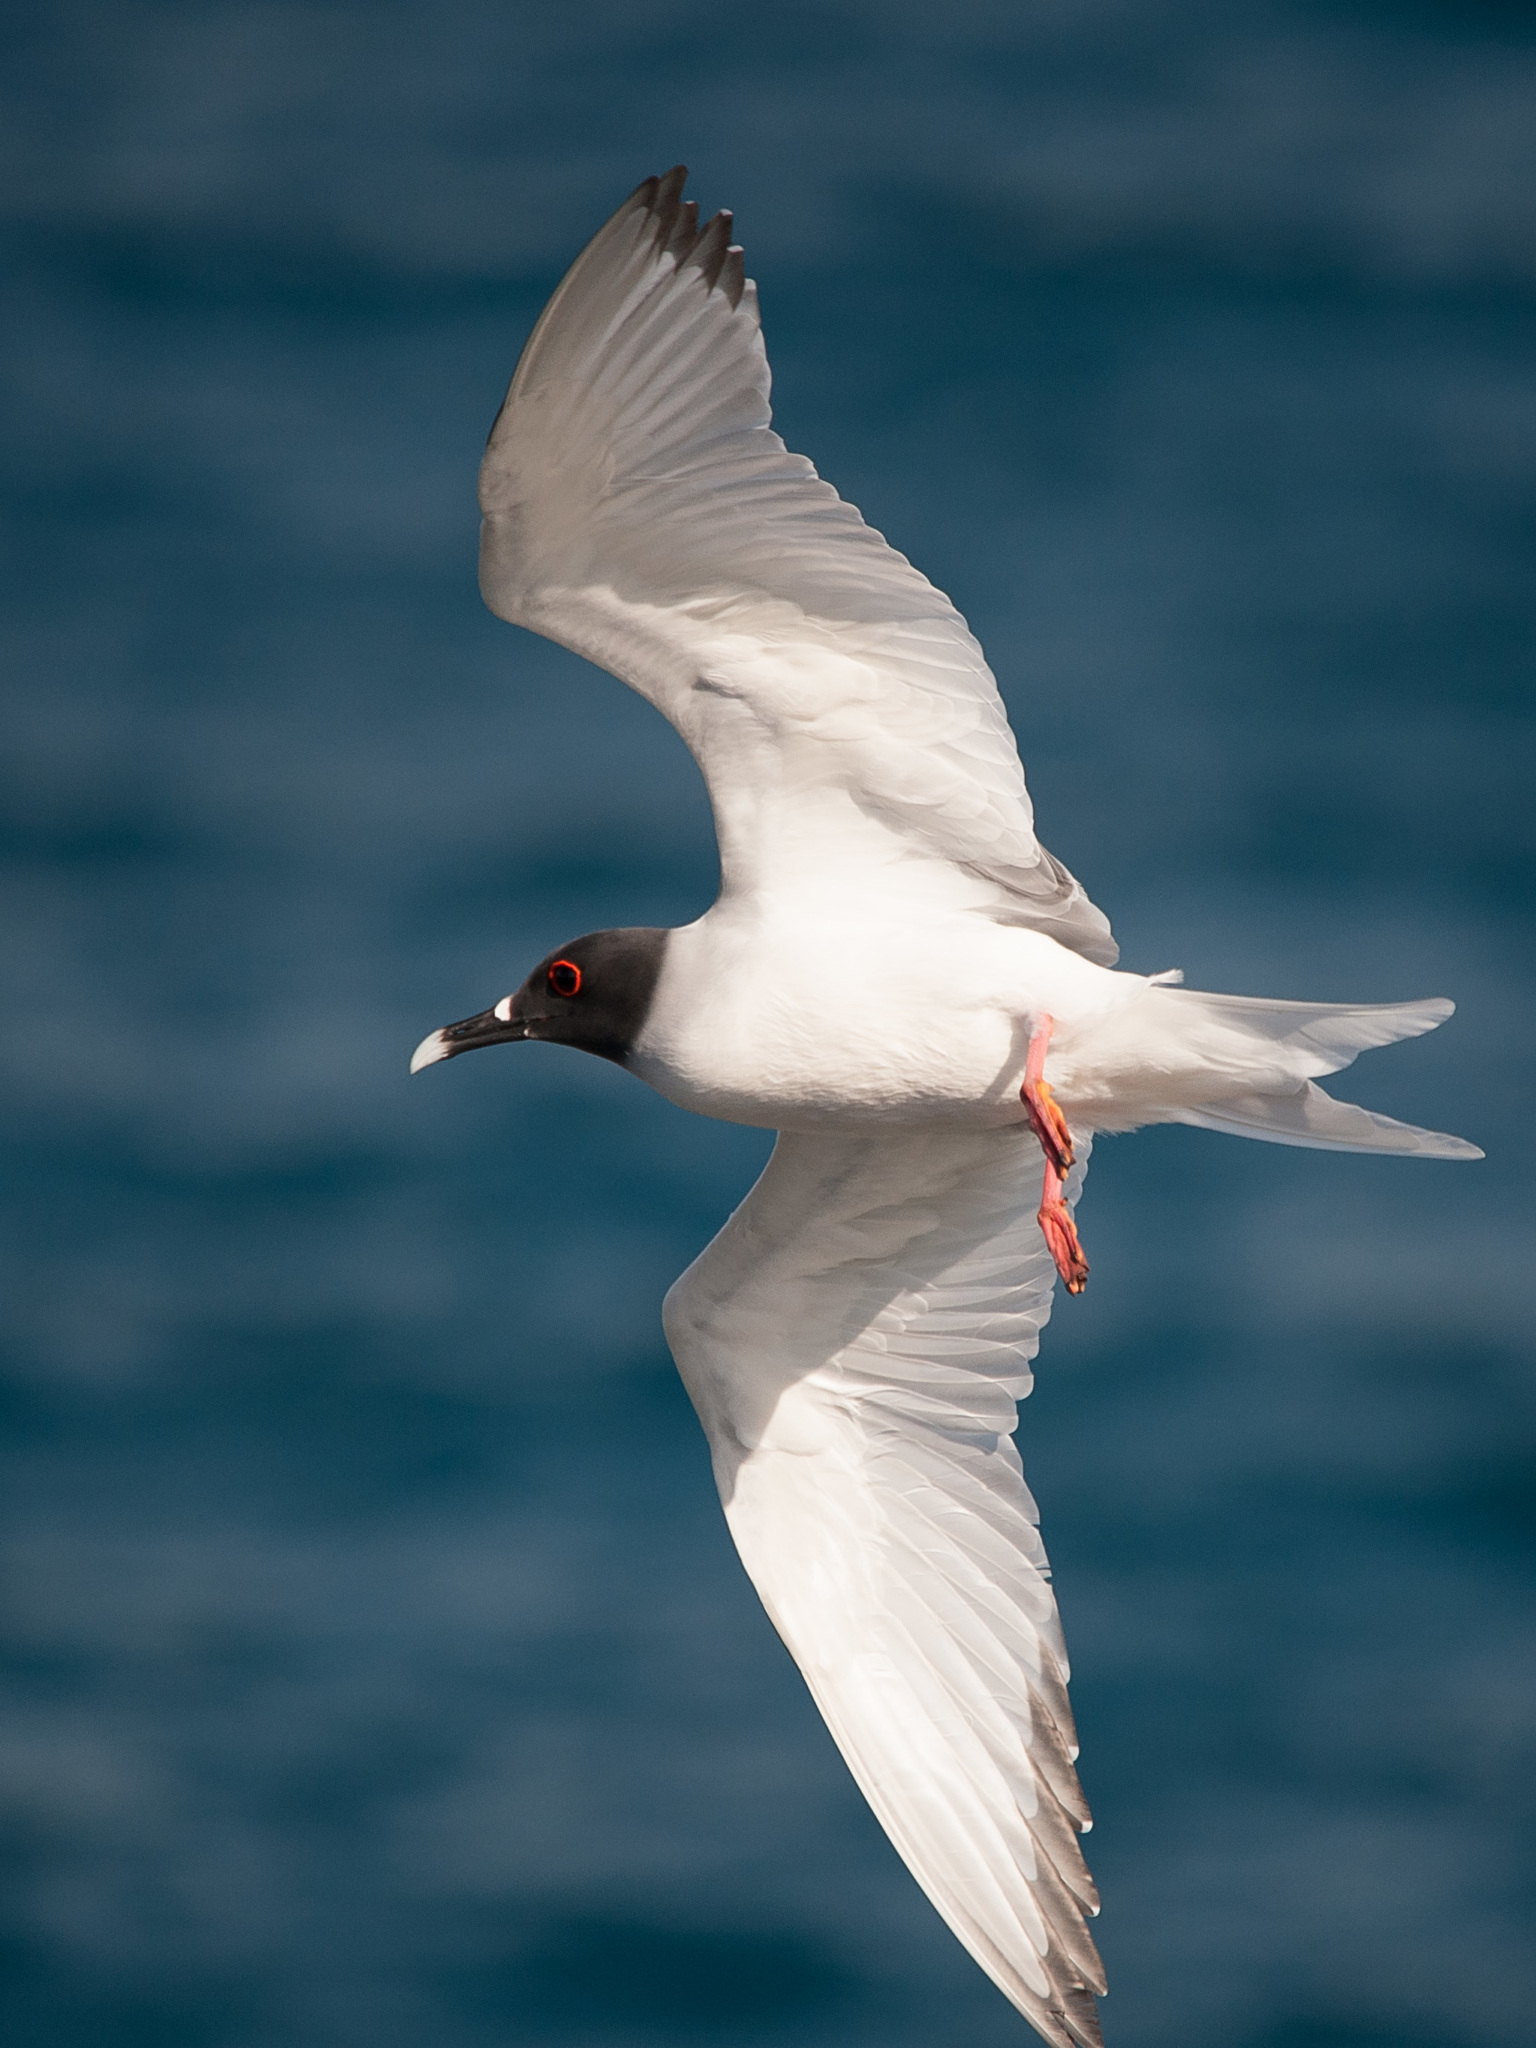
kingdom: Animalia
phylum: Chordata
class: Aves
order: Charadriiformes
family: Laridae
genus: Creagrus
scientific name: Creagrus furcatus
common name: Swallow-tailed gull
